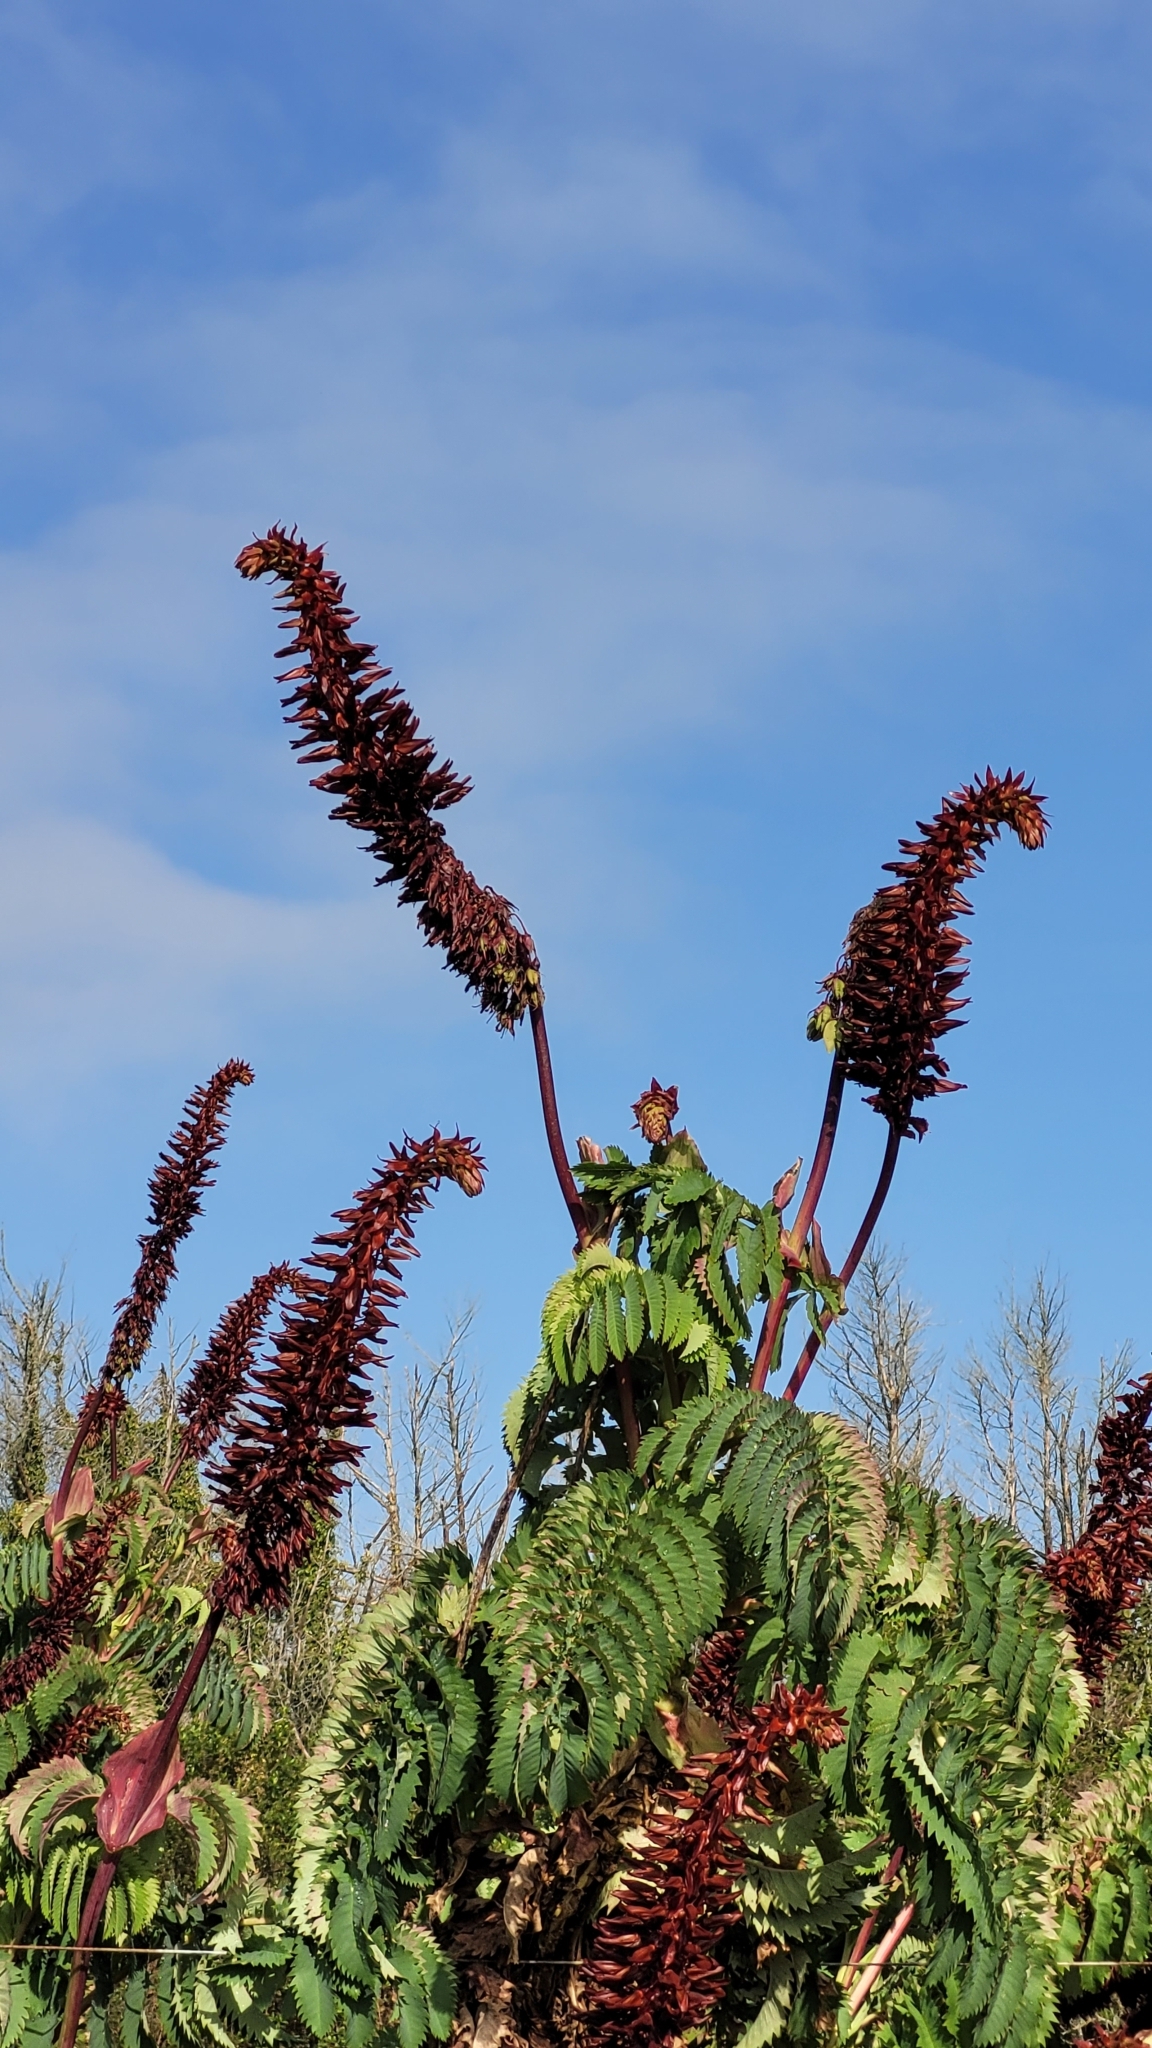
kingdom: Plantae
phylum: Tracheophyta
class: Magnoliopsida
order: Geraniales
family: Melianthaceae
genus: Melianthus
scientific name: Melianthus major
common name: Honey-flower
